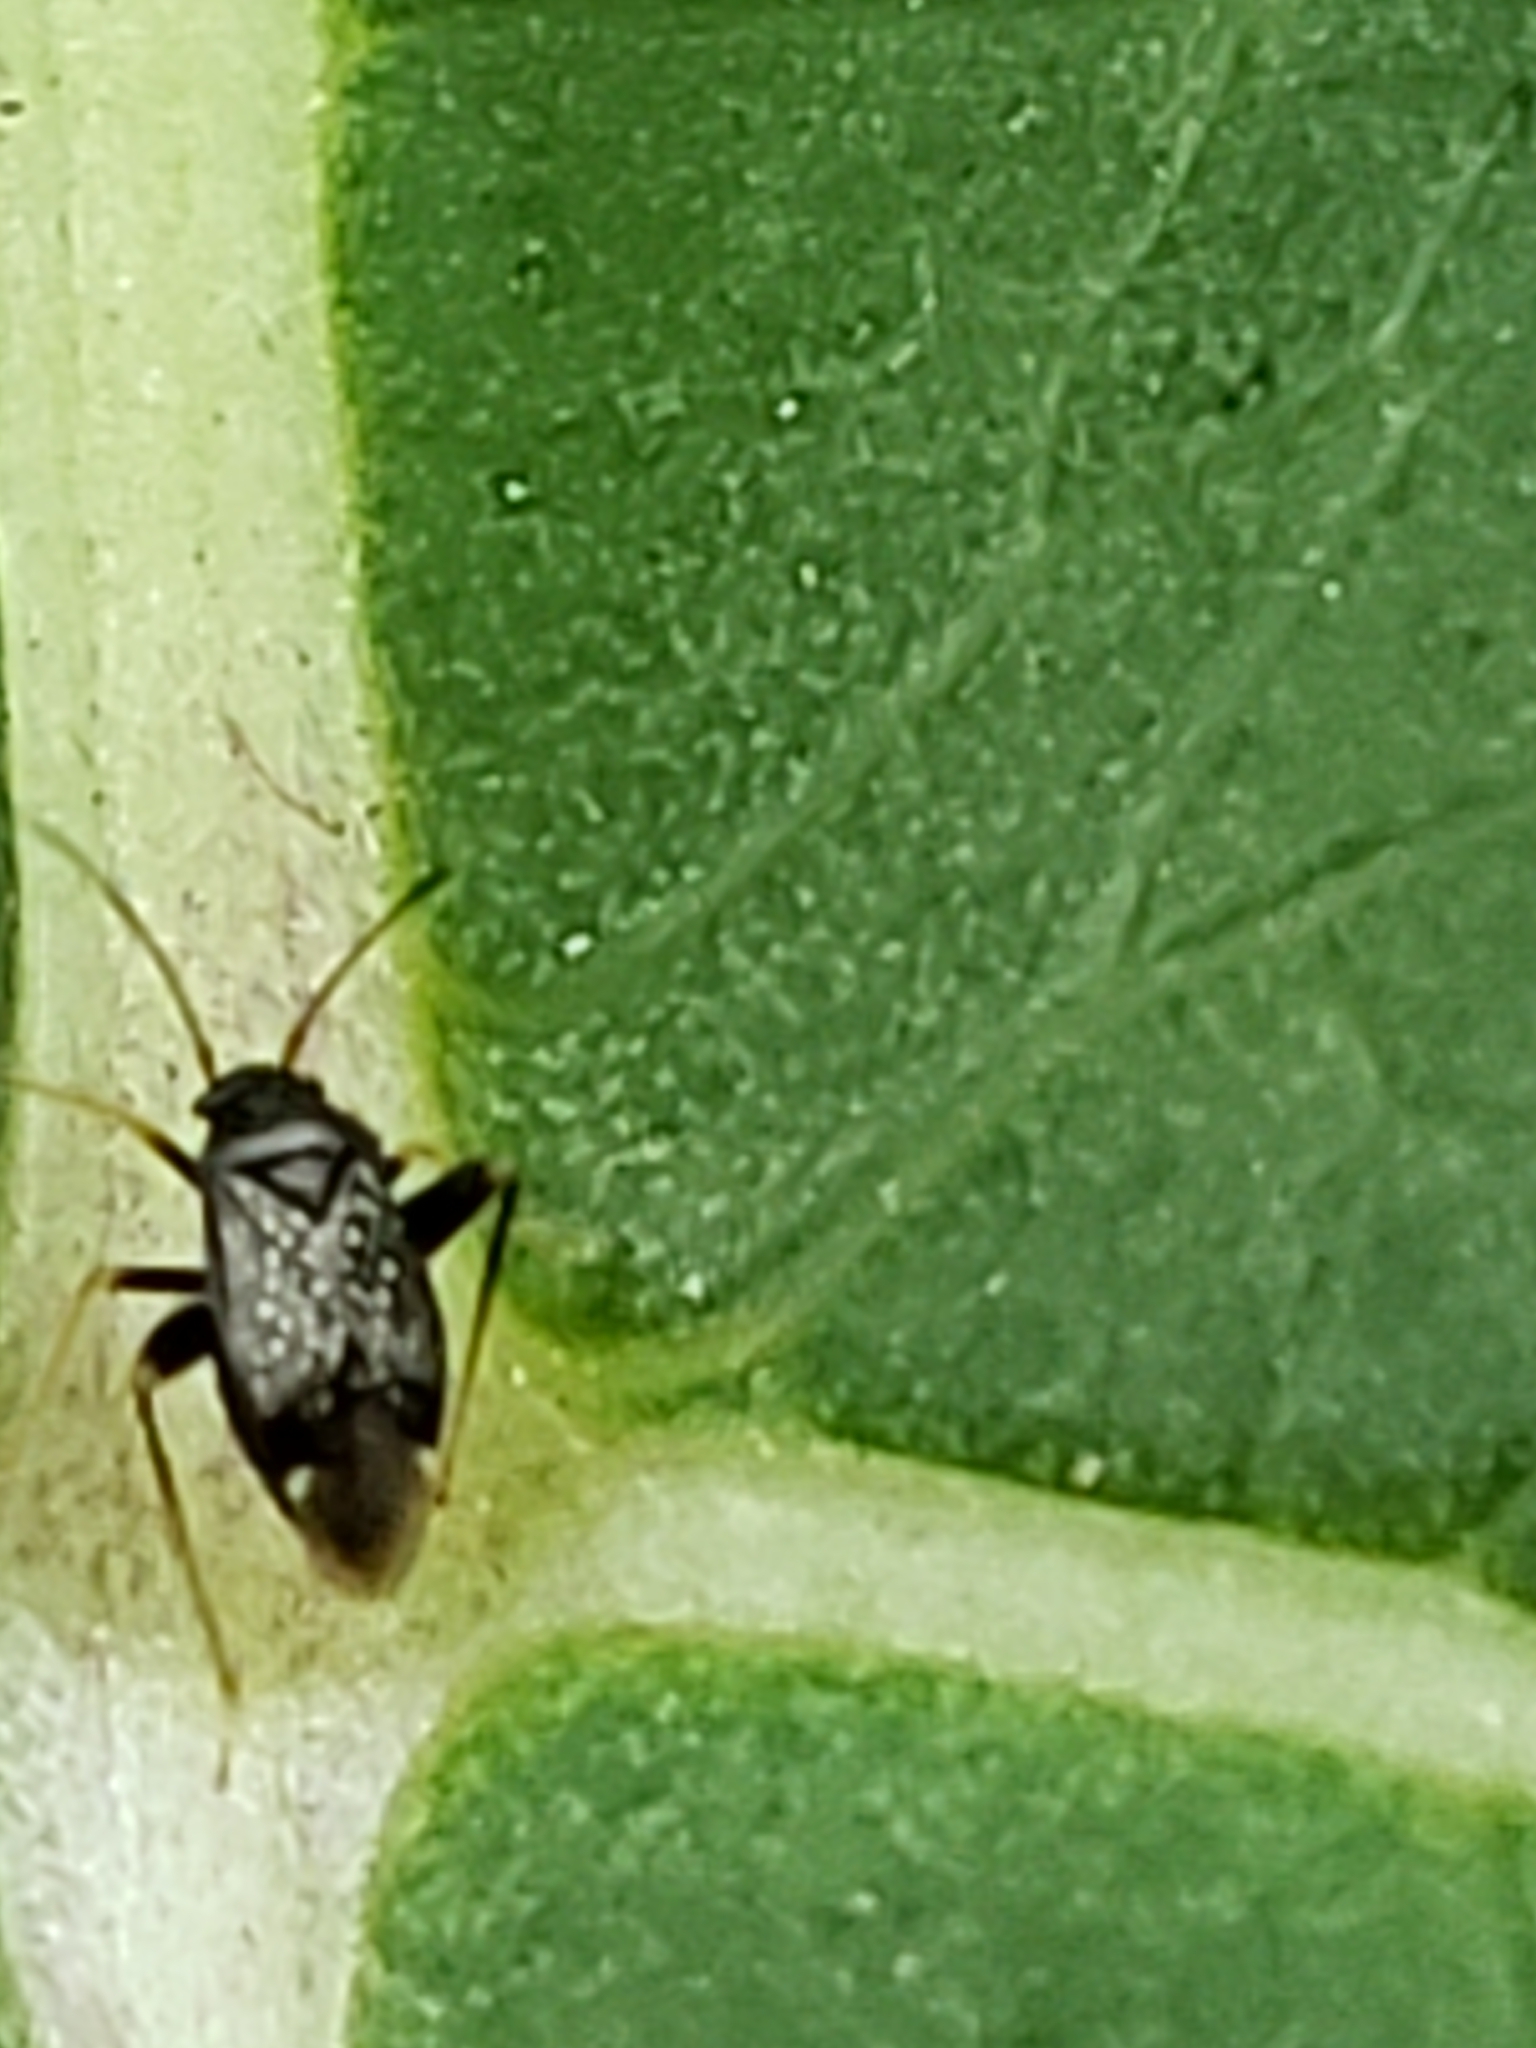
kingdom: Animalia
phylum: Arthropoda
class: Insecta
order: Hemiptera
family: Miridae
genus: Microtechnites
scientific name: Microtechnites bractatus
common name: Garden fleahopper
